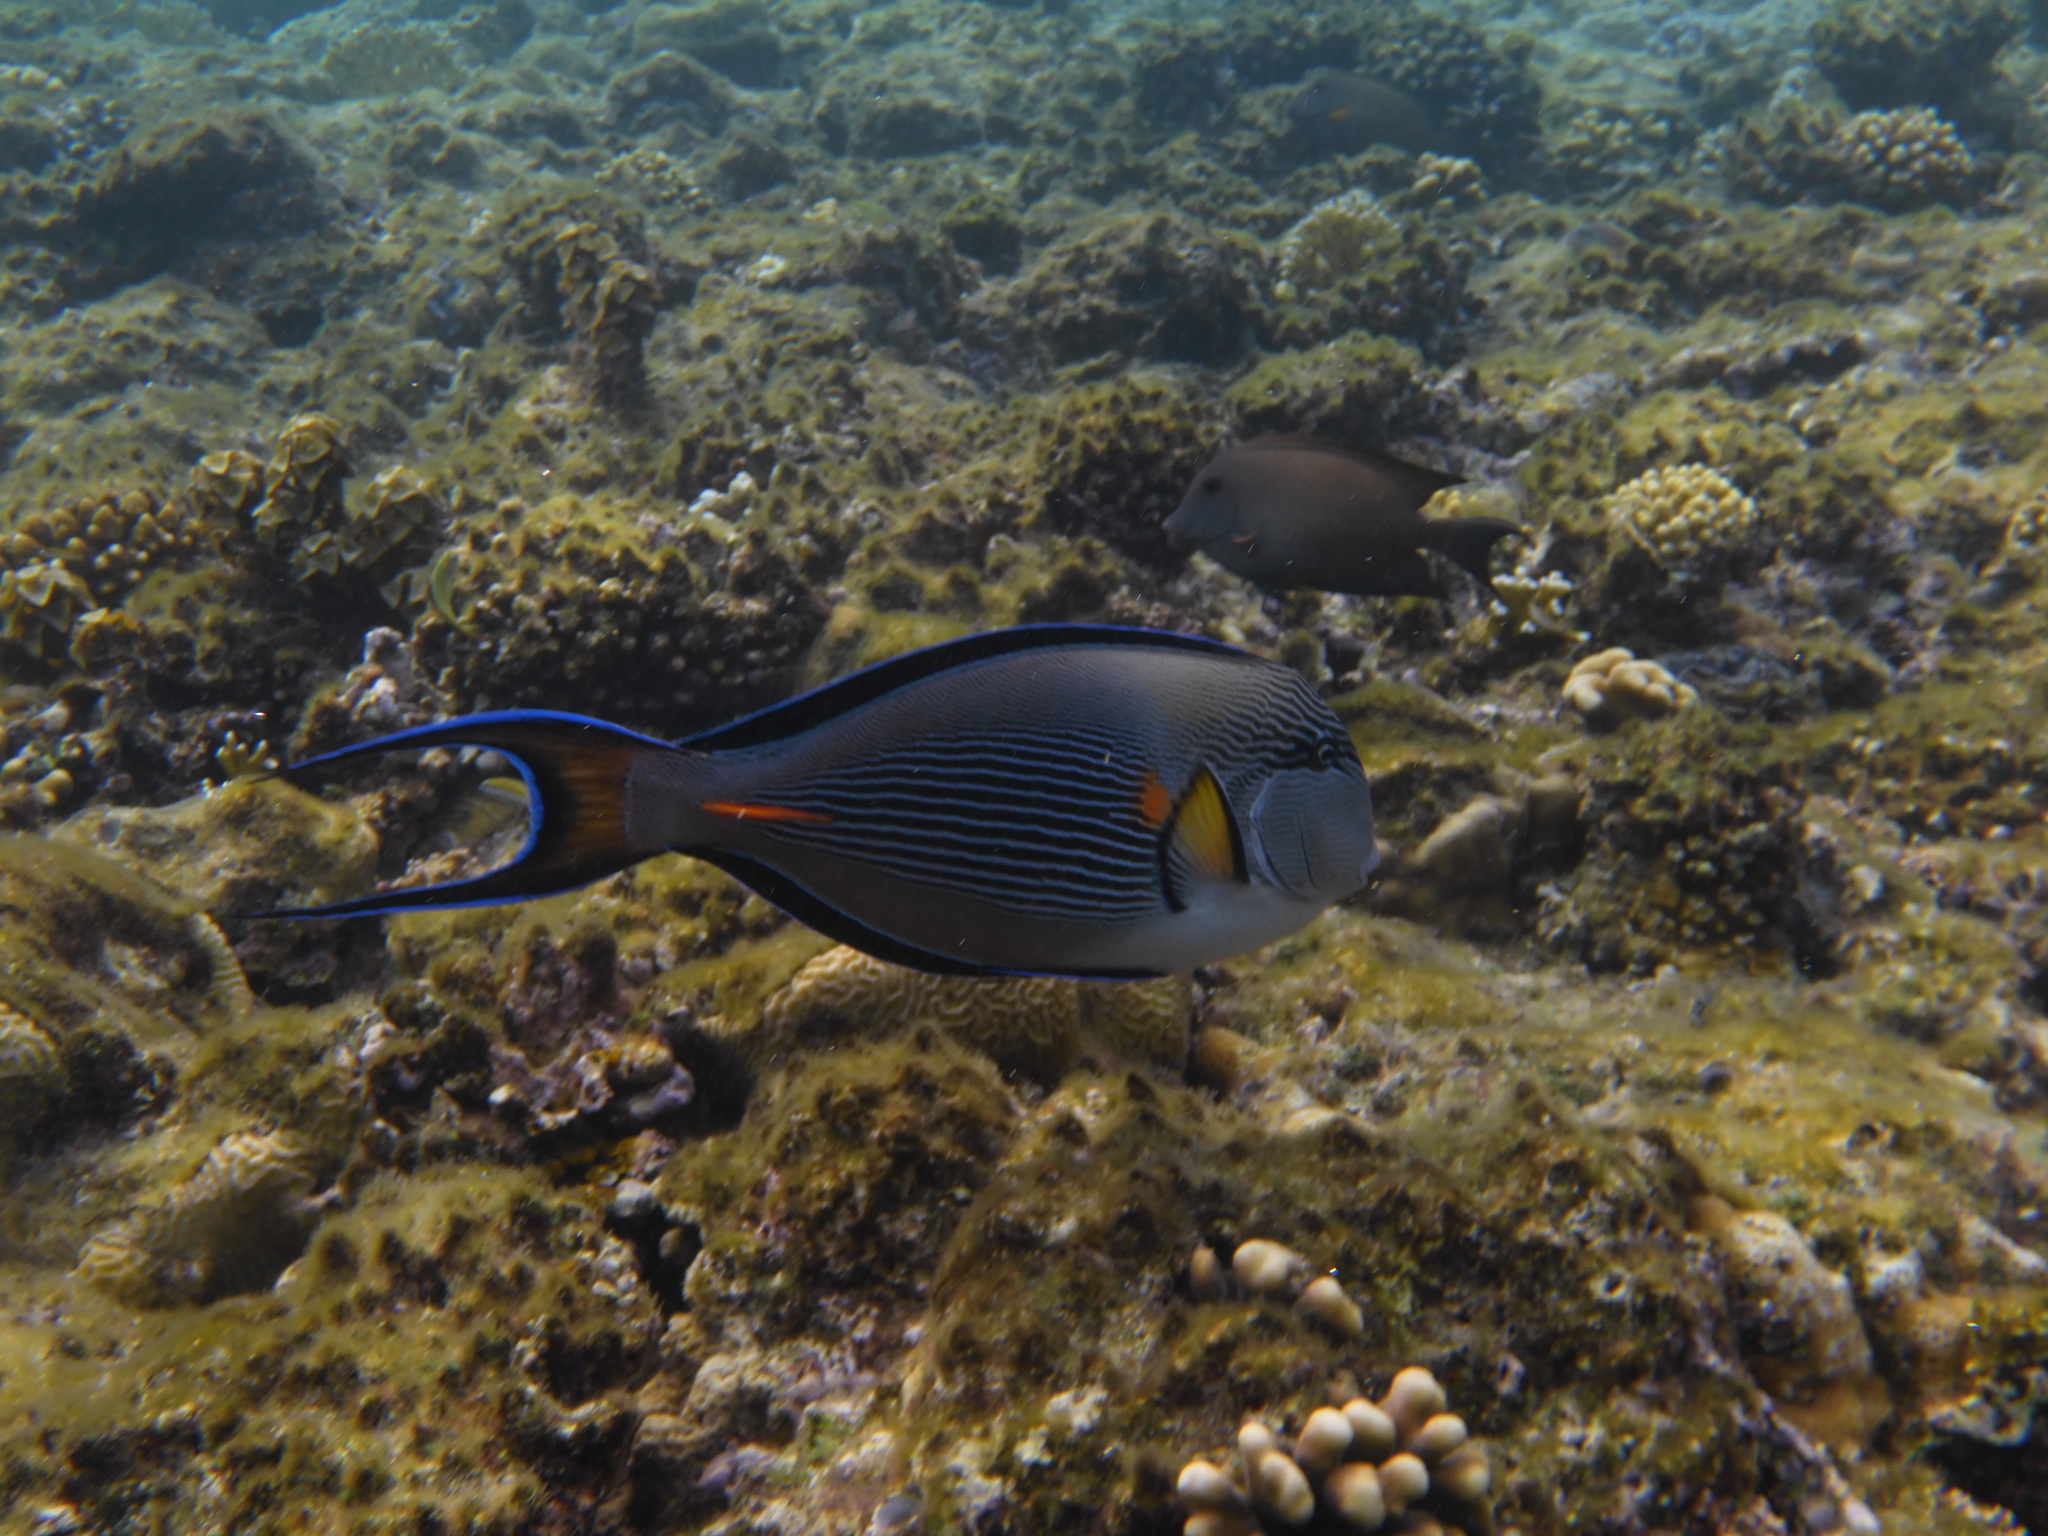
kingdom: Animalia
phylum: Chordata
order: Perciformes
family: Acanthuridae
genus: Acanthurus
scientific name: Acanthurus sohal
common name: Red sea surgeonfish
